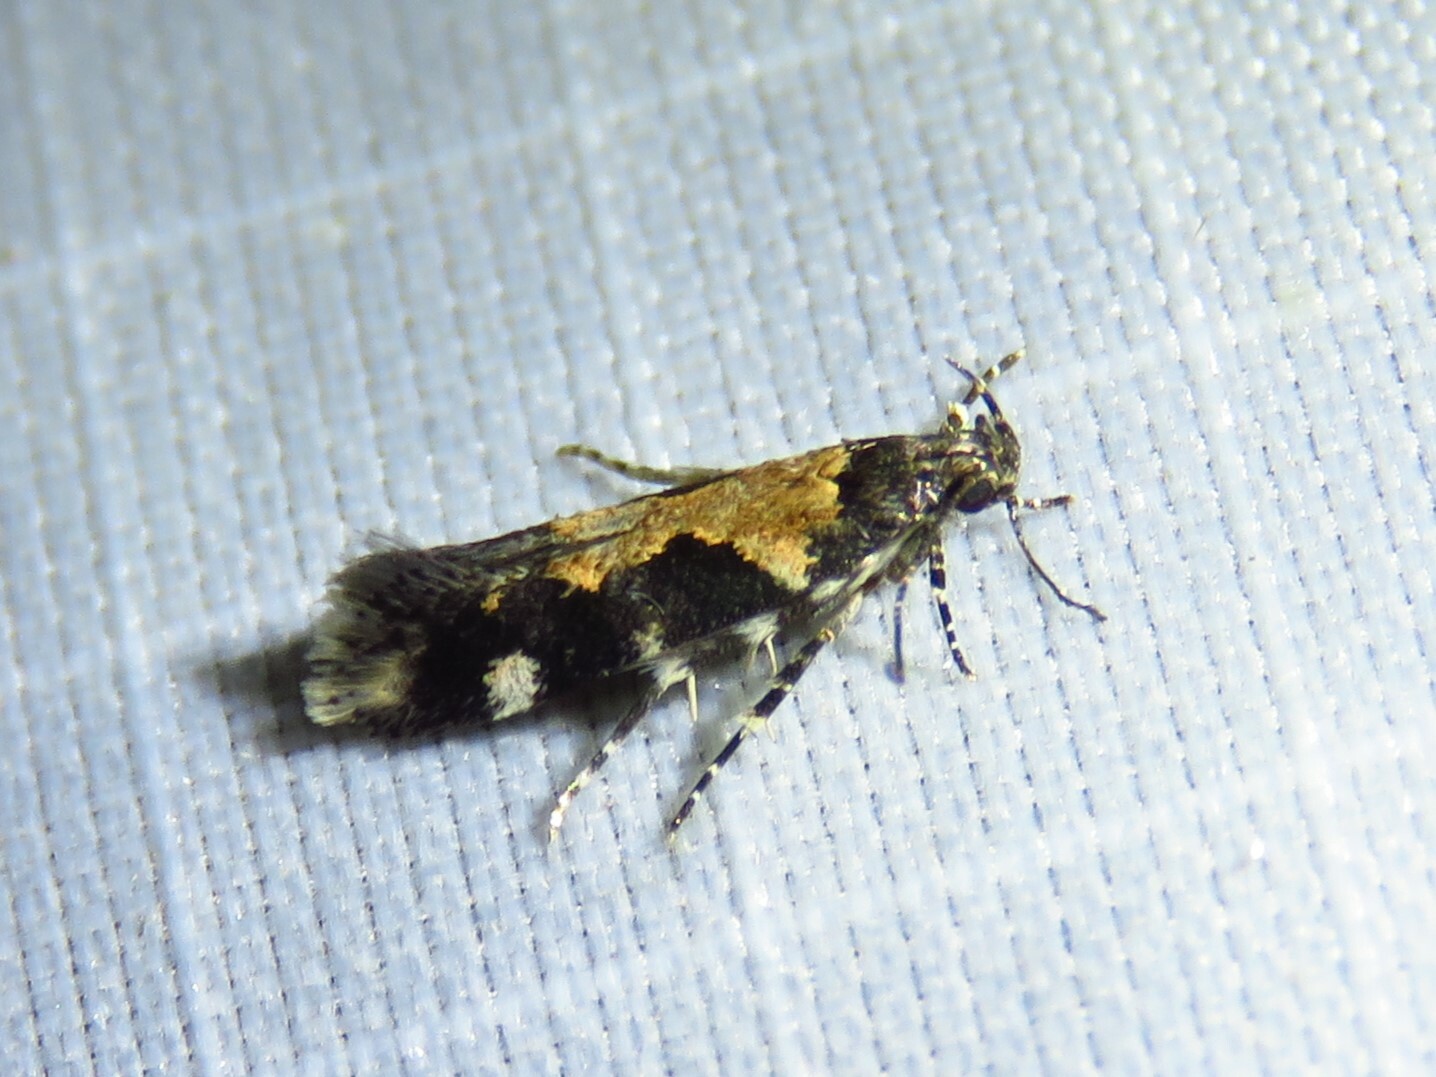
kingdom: Animalia
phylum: Arthropoda
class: Insecta
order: Lepidoptera
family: Gelechiidae
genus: Stegasta
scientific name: Stegasta bosqueella
